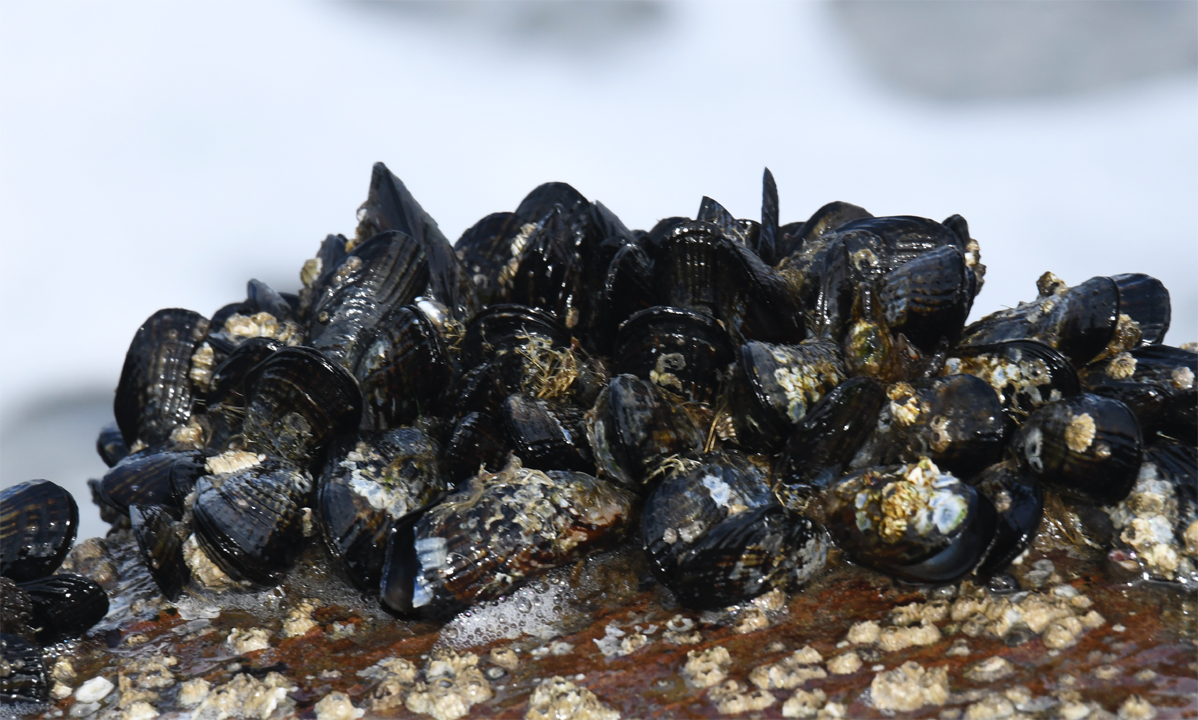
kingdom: Animalia
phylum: Mollusca
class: Bivalvia
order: Mytilida
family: Mytilidae
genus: Mytilus
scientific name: Mytilus californianus
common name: California mussel
